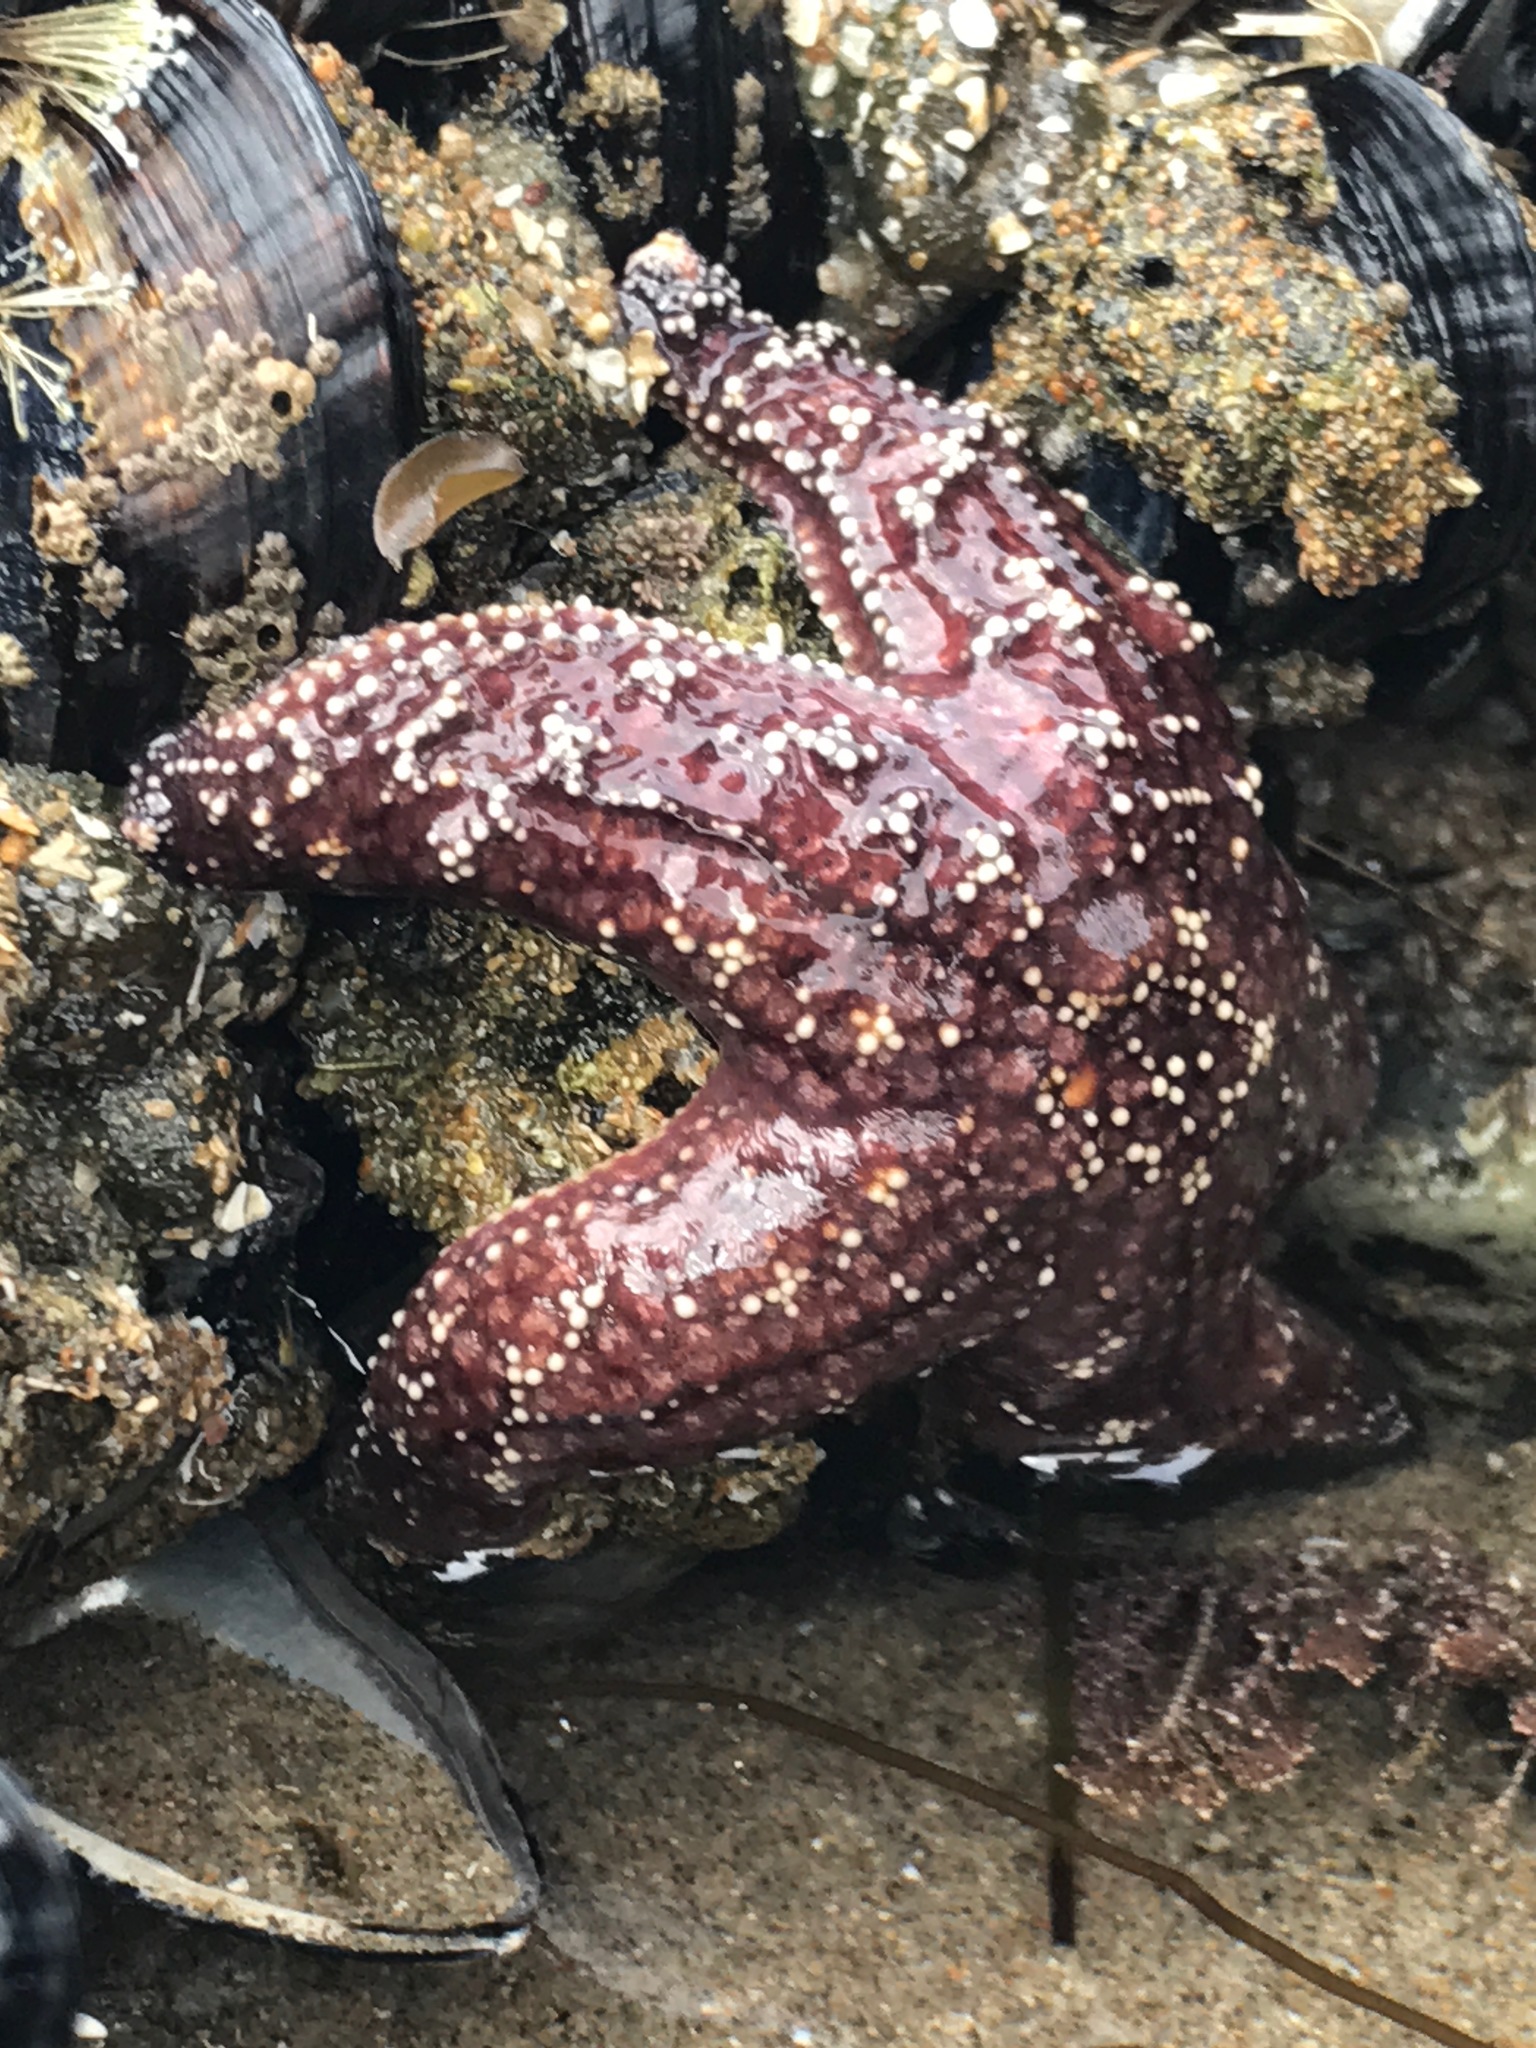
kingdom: Animalia
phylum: Echinodermata
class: Asteroidea
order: Forcipulatida
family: Asteriidae
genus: Pisaster
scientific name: Pisaster ochraceus
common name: Ochre stars
